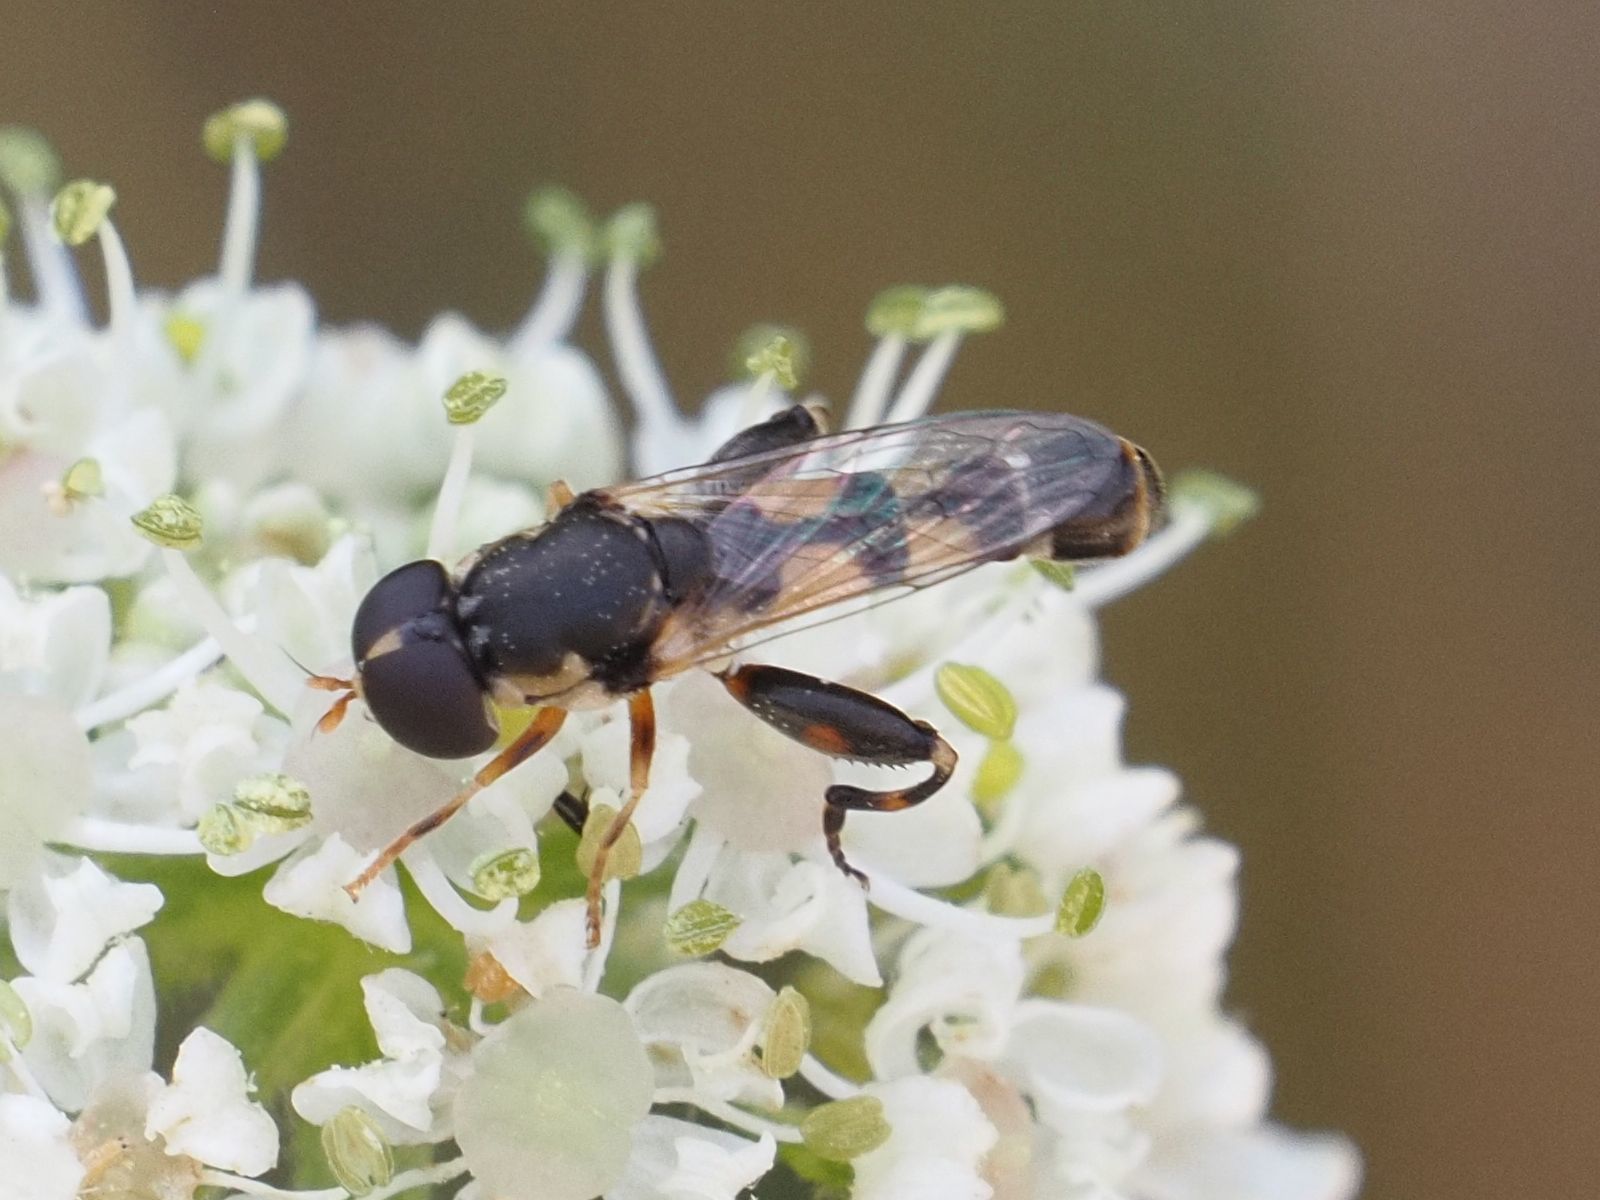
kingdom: Animalia
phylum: Arthropoda
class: Insecta
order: Diptera
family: Syrphidae
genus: Syritta
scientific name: Syritta pipiens
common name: Hover fly
